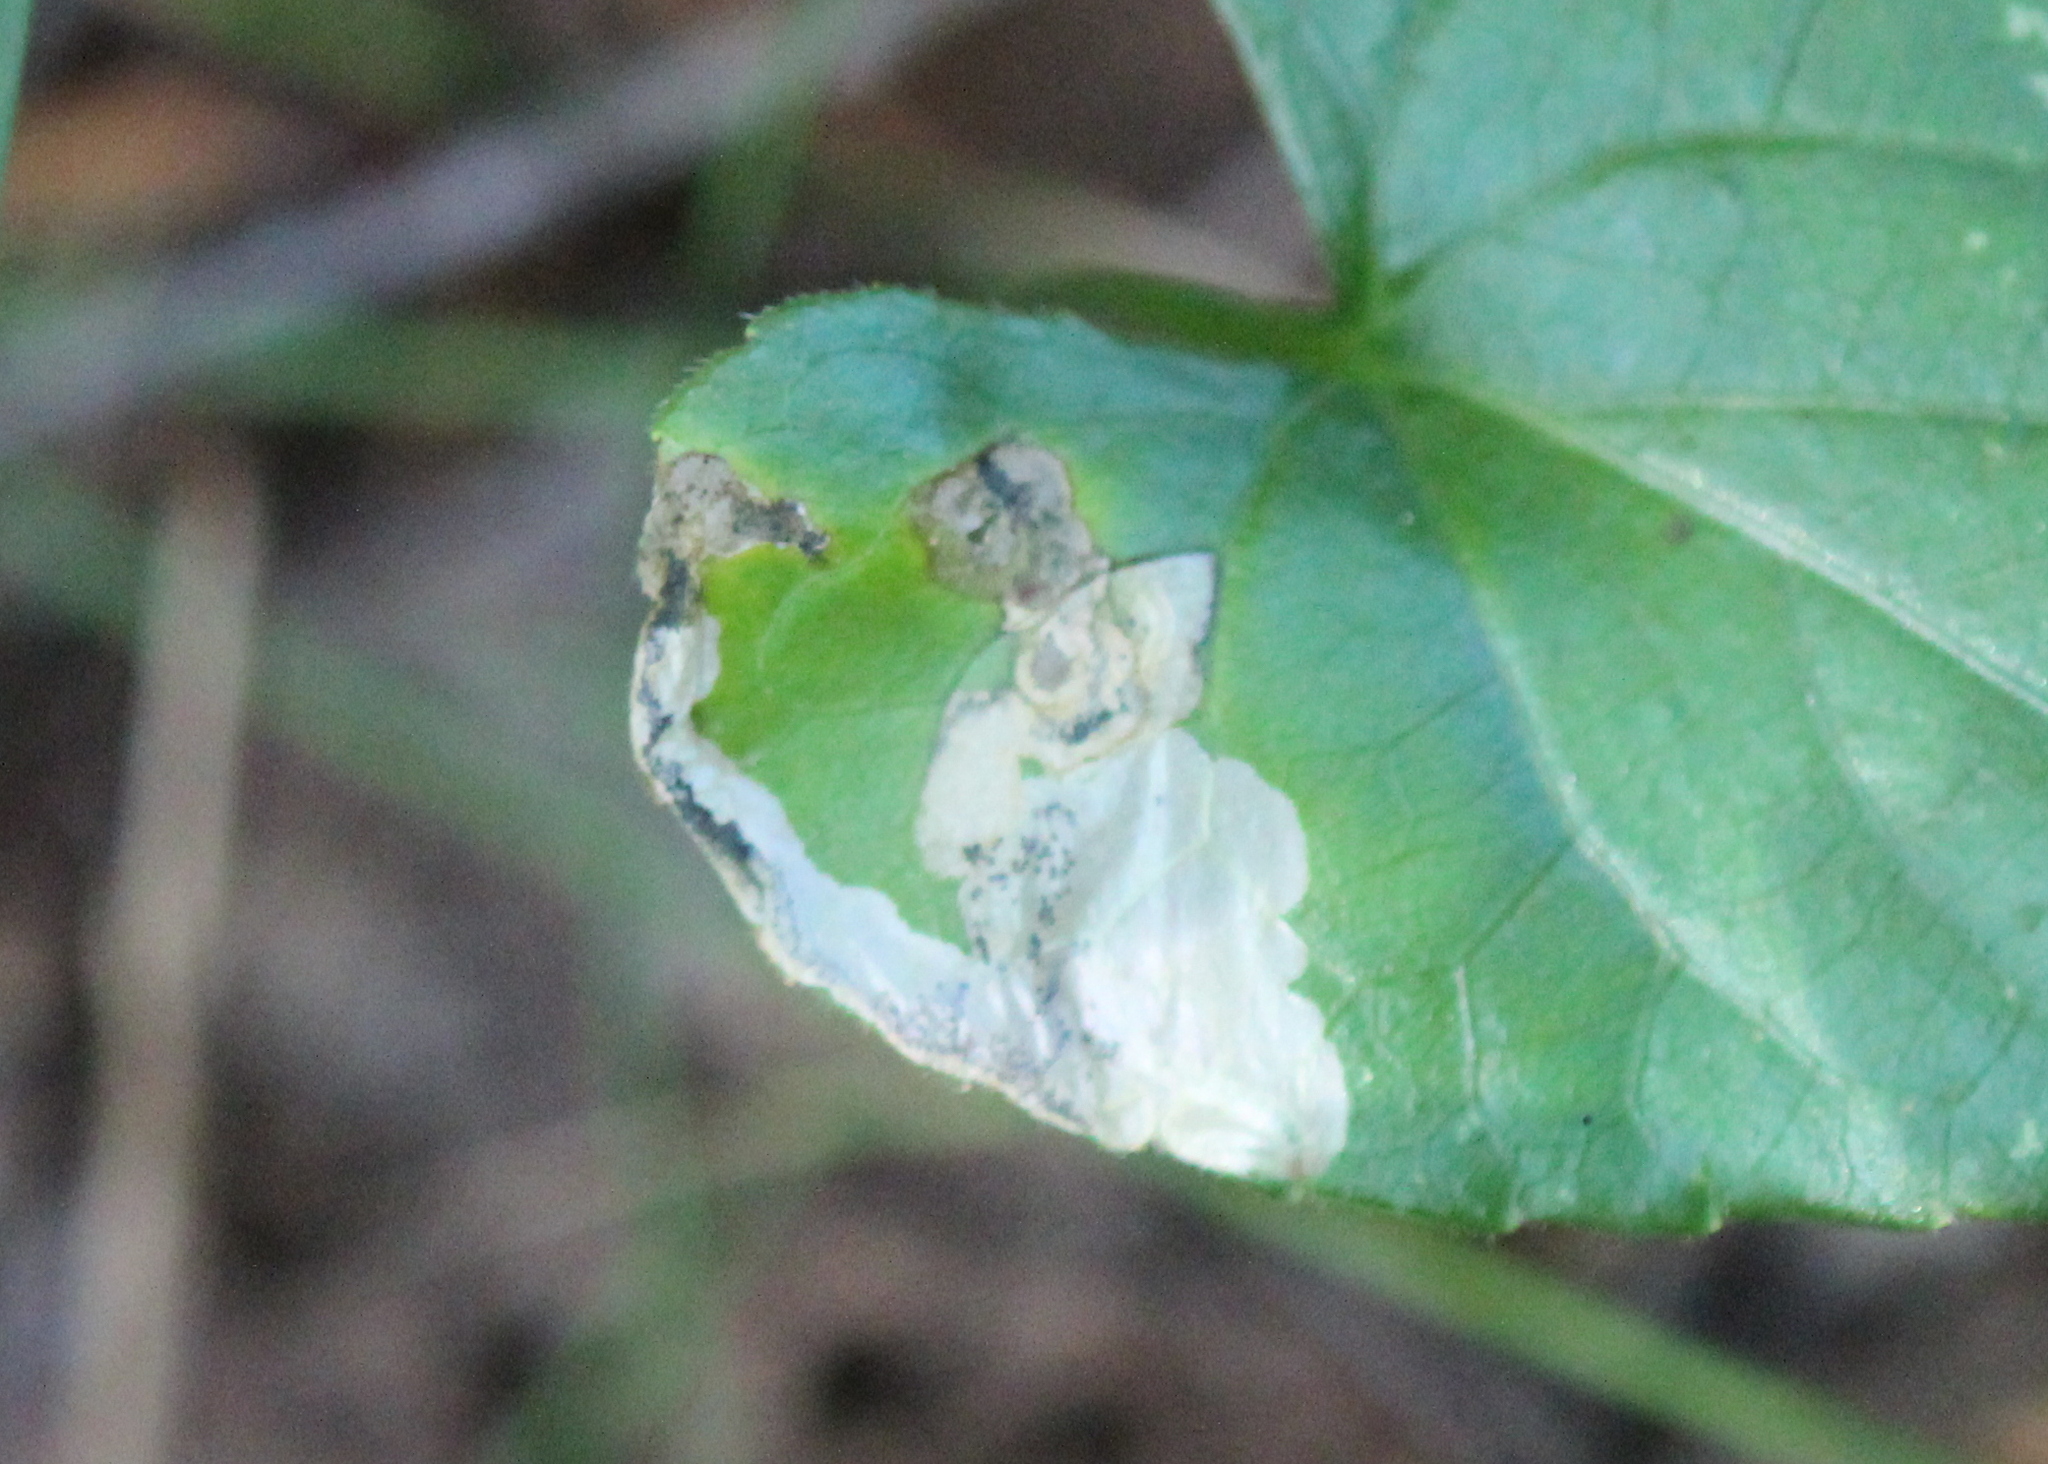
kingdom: Animalia
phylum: Arthropoda
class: Insecta
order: Hymenoptera
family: Tenthredinidae
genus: Nefusa
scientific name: Nefusa ambigua
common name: Violet leafmining sawfly
